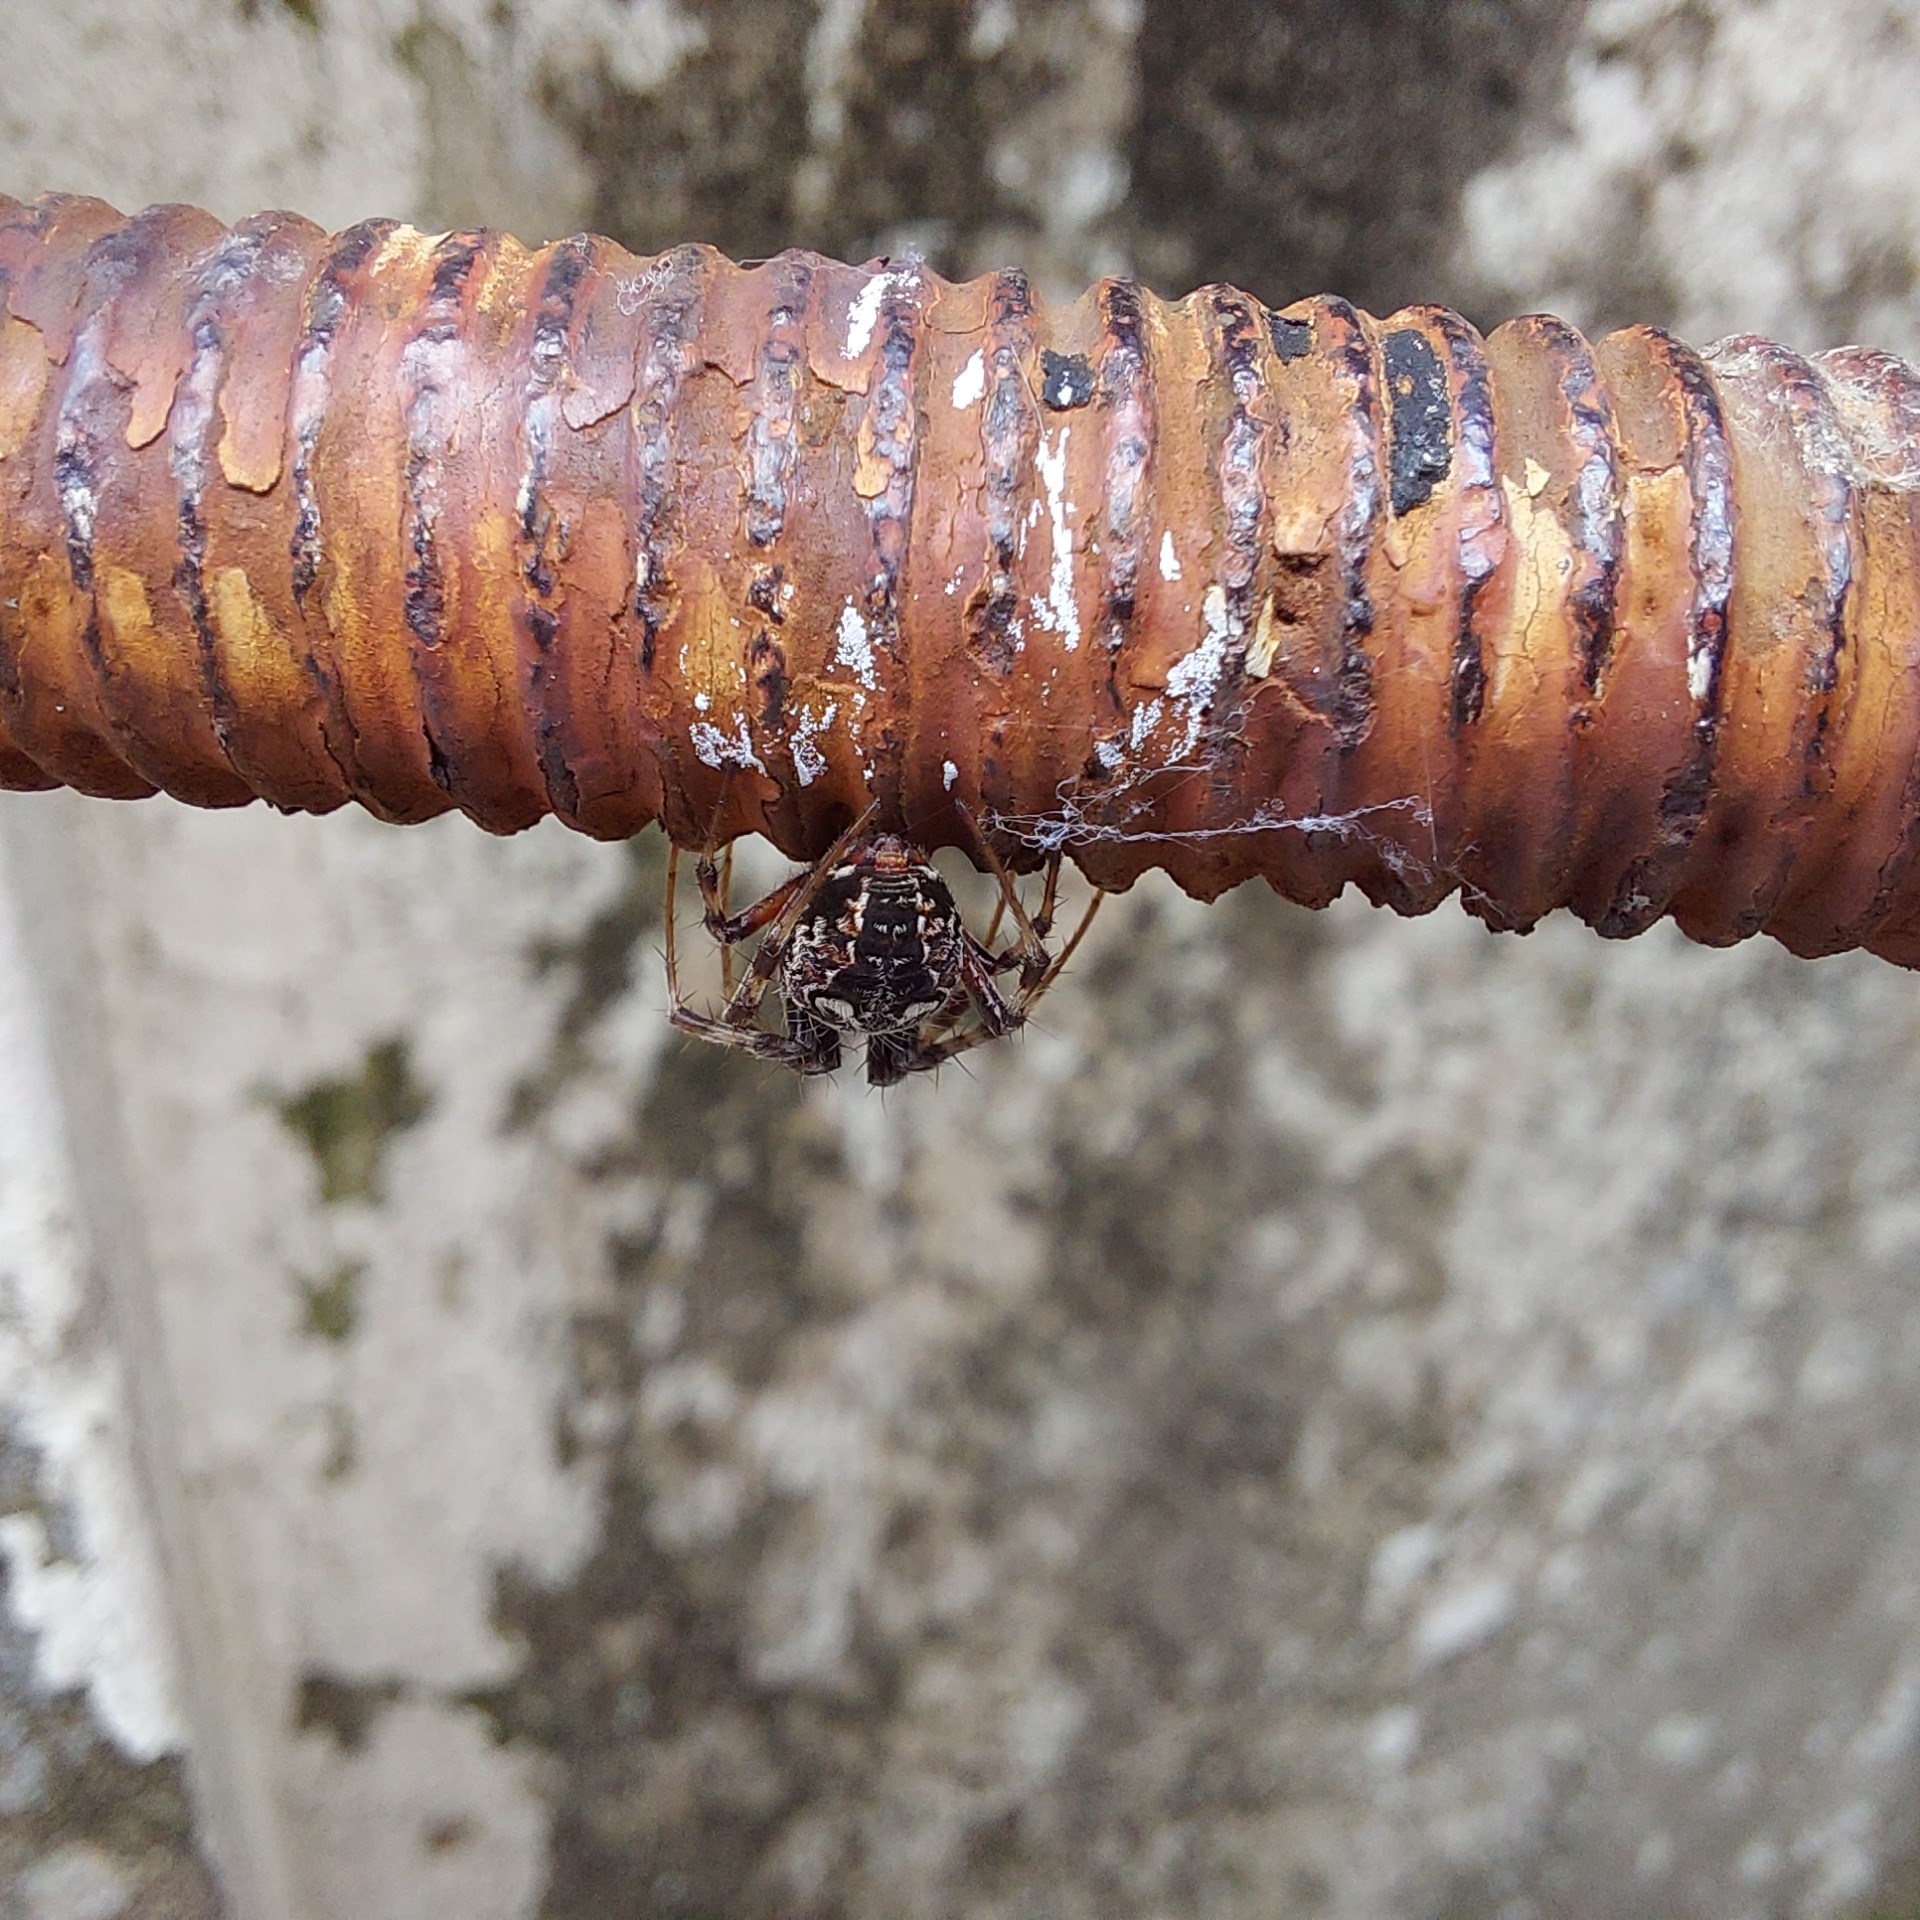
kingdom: Animalia
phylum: Arthropoda
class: Arachnida
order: Araneae
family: Araneidae
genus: Metepeira
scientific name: Metepeira
